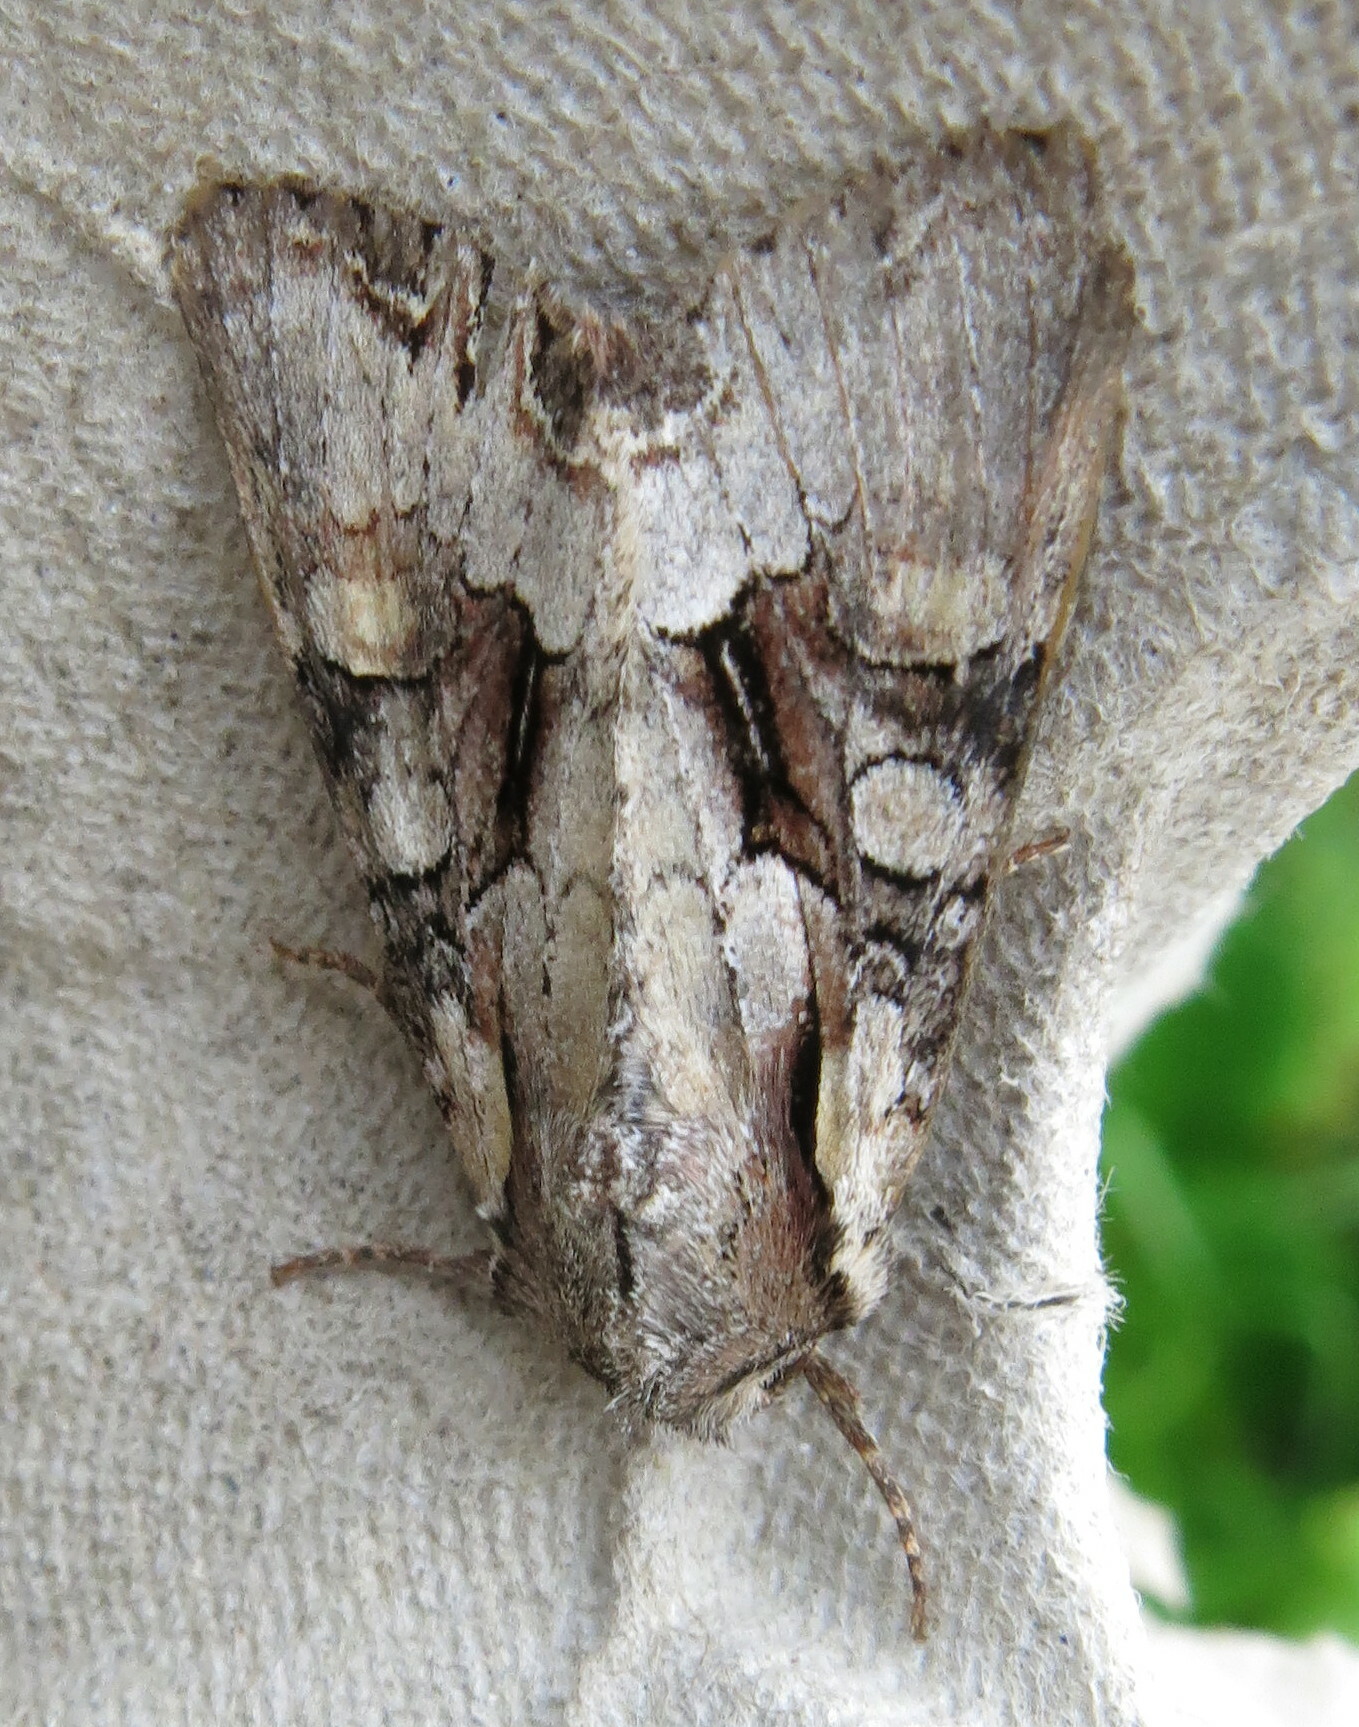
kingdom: Animalia
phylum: Arthropoda
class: Insecta
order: Lepidoptera
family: Noctuidae
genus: Lacanobia
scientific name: Lacanobia w-latinum
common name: Light brocade
